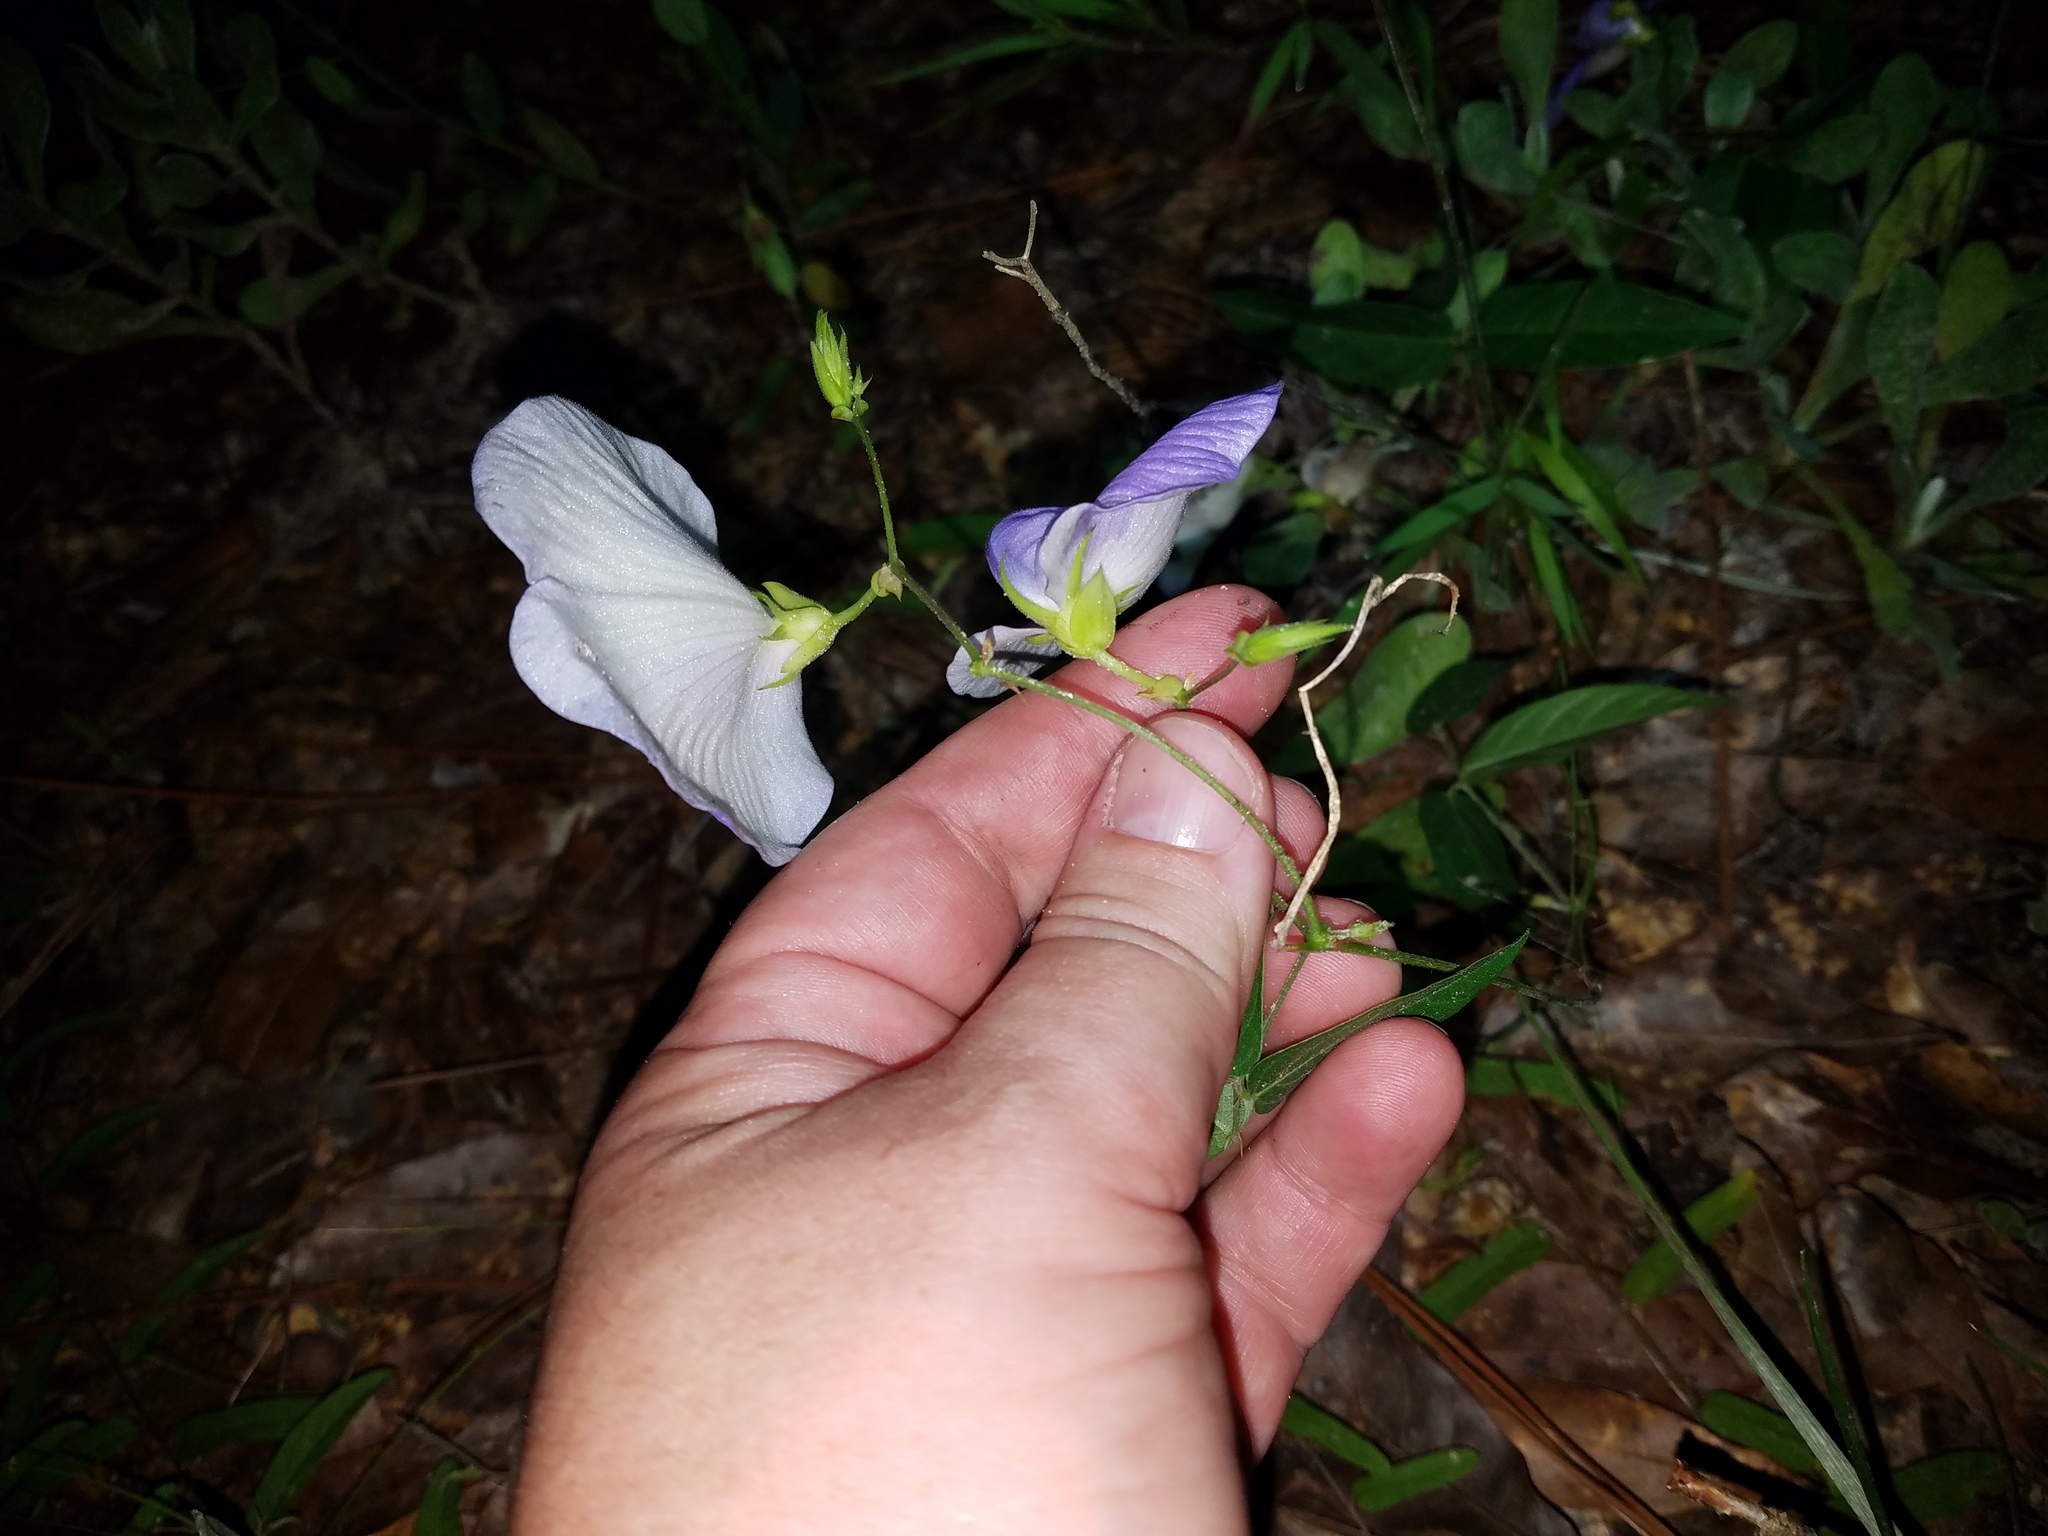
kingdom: Plantae
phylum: Tracheophyta
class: Magnoliopsida
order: Fabales
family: Fabaceae
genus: Centrosema
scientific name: Centrosema virginianum
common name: Butterfly-pea
